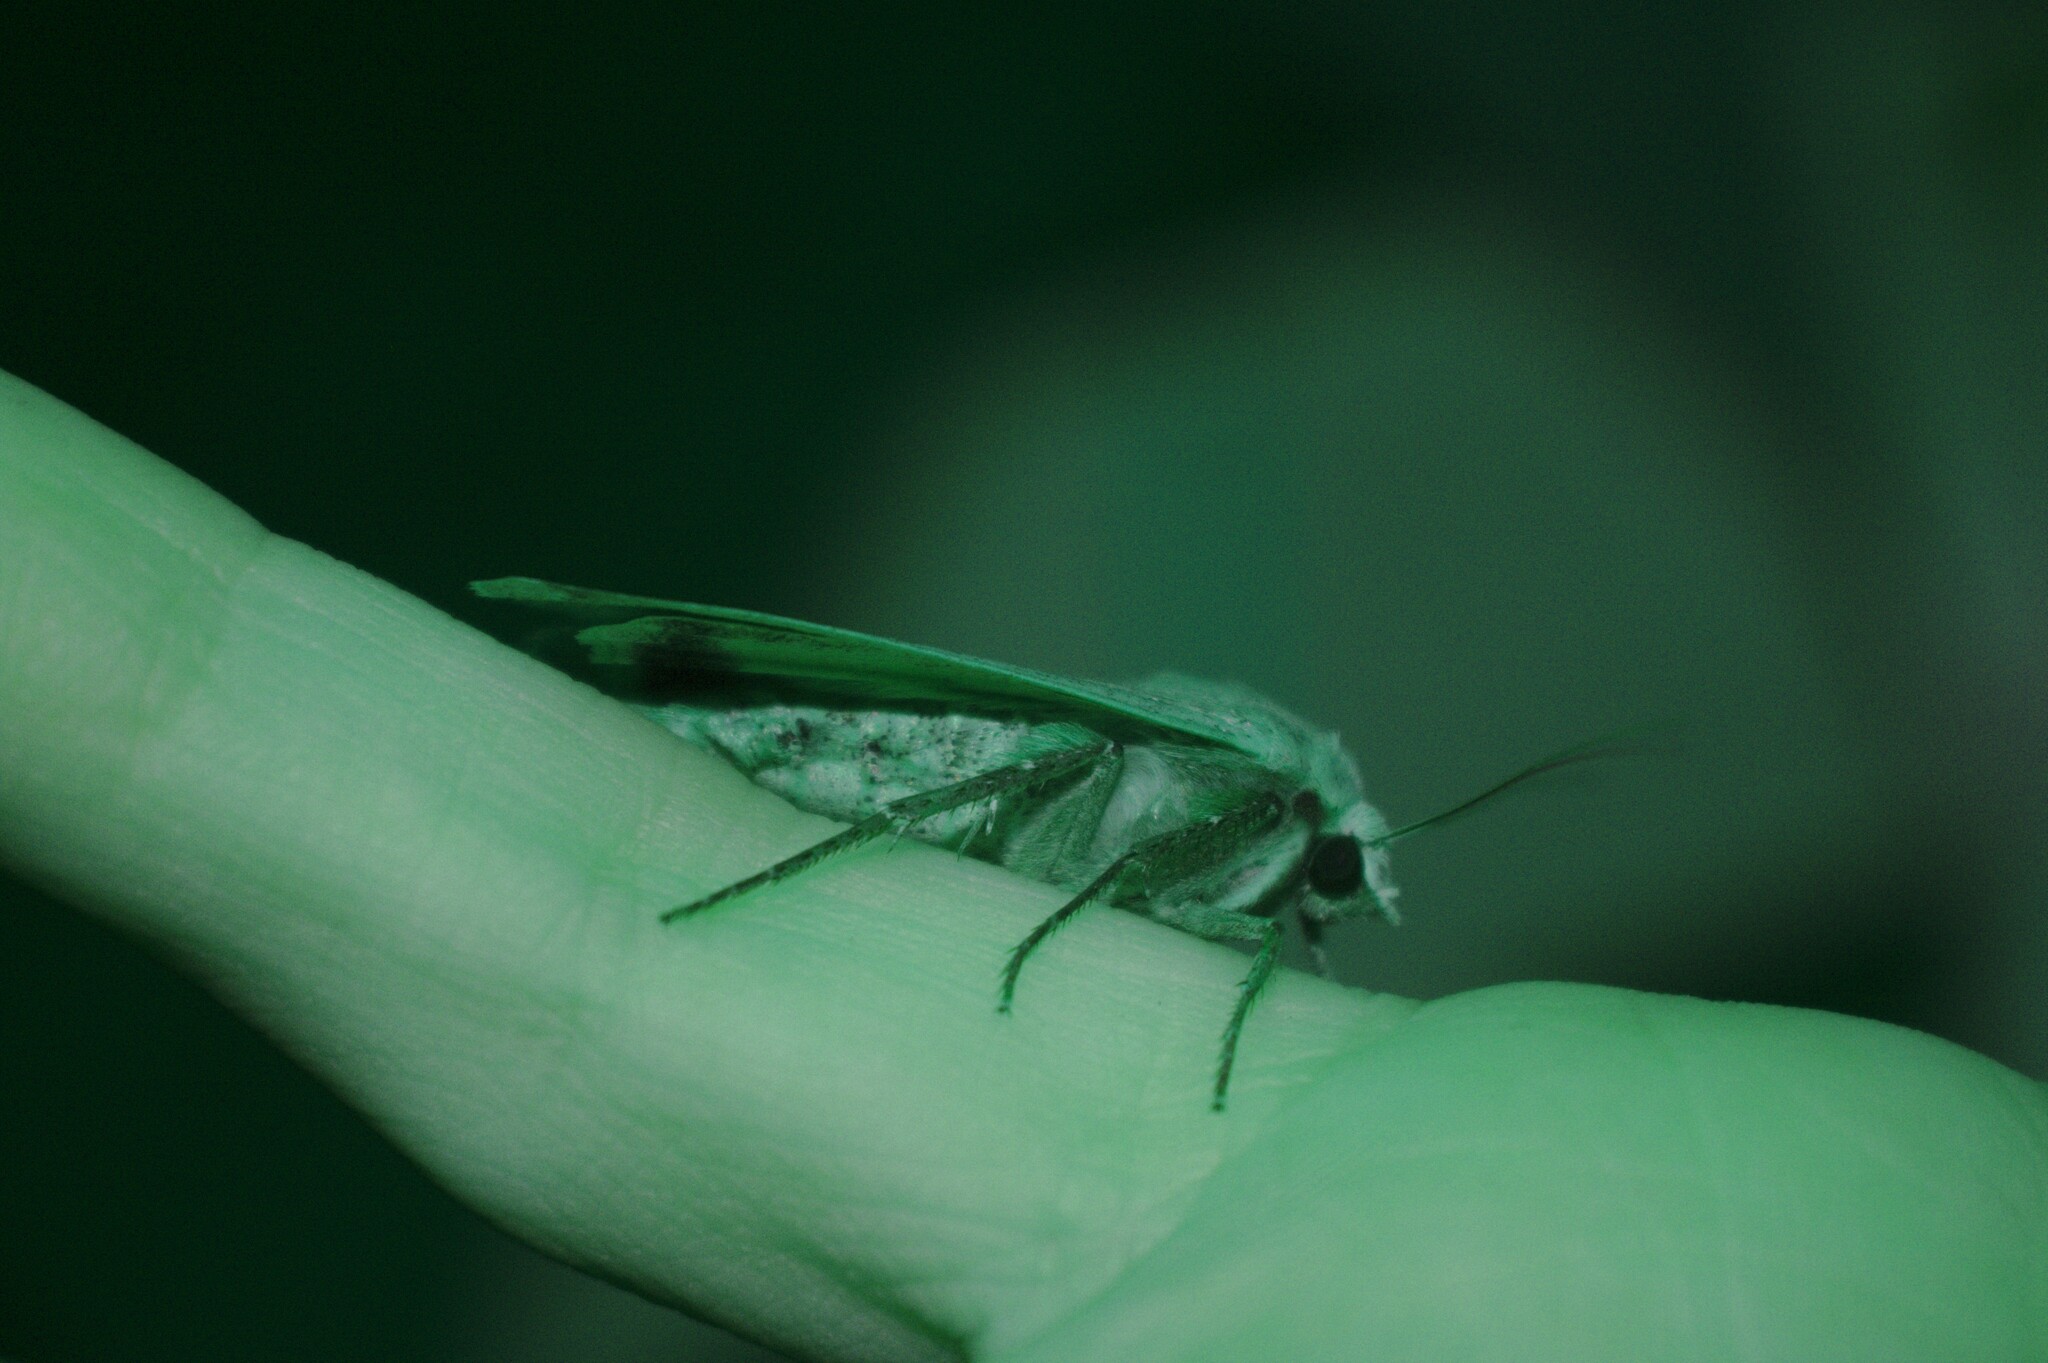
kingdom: Animalia
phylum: Arthropoda
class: Insecta
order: Lepidoptera
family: Noctuidae
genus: Noctua
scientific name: Noctua pronuba
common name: Large yellow underwing
